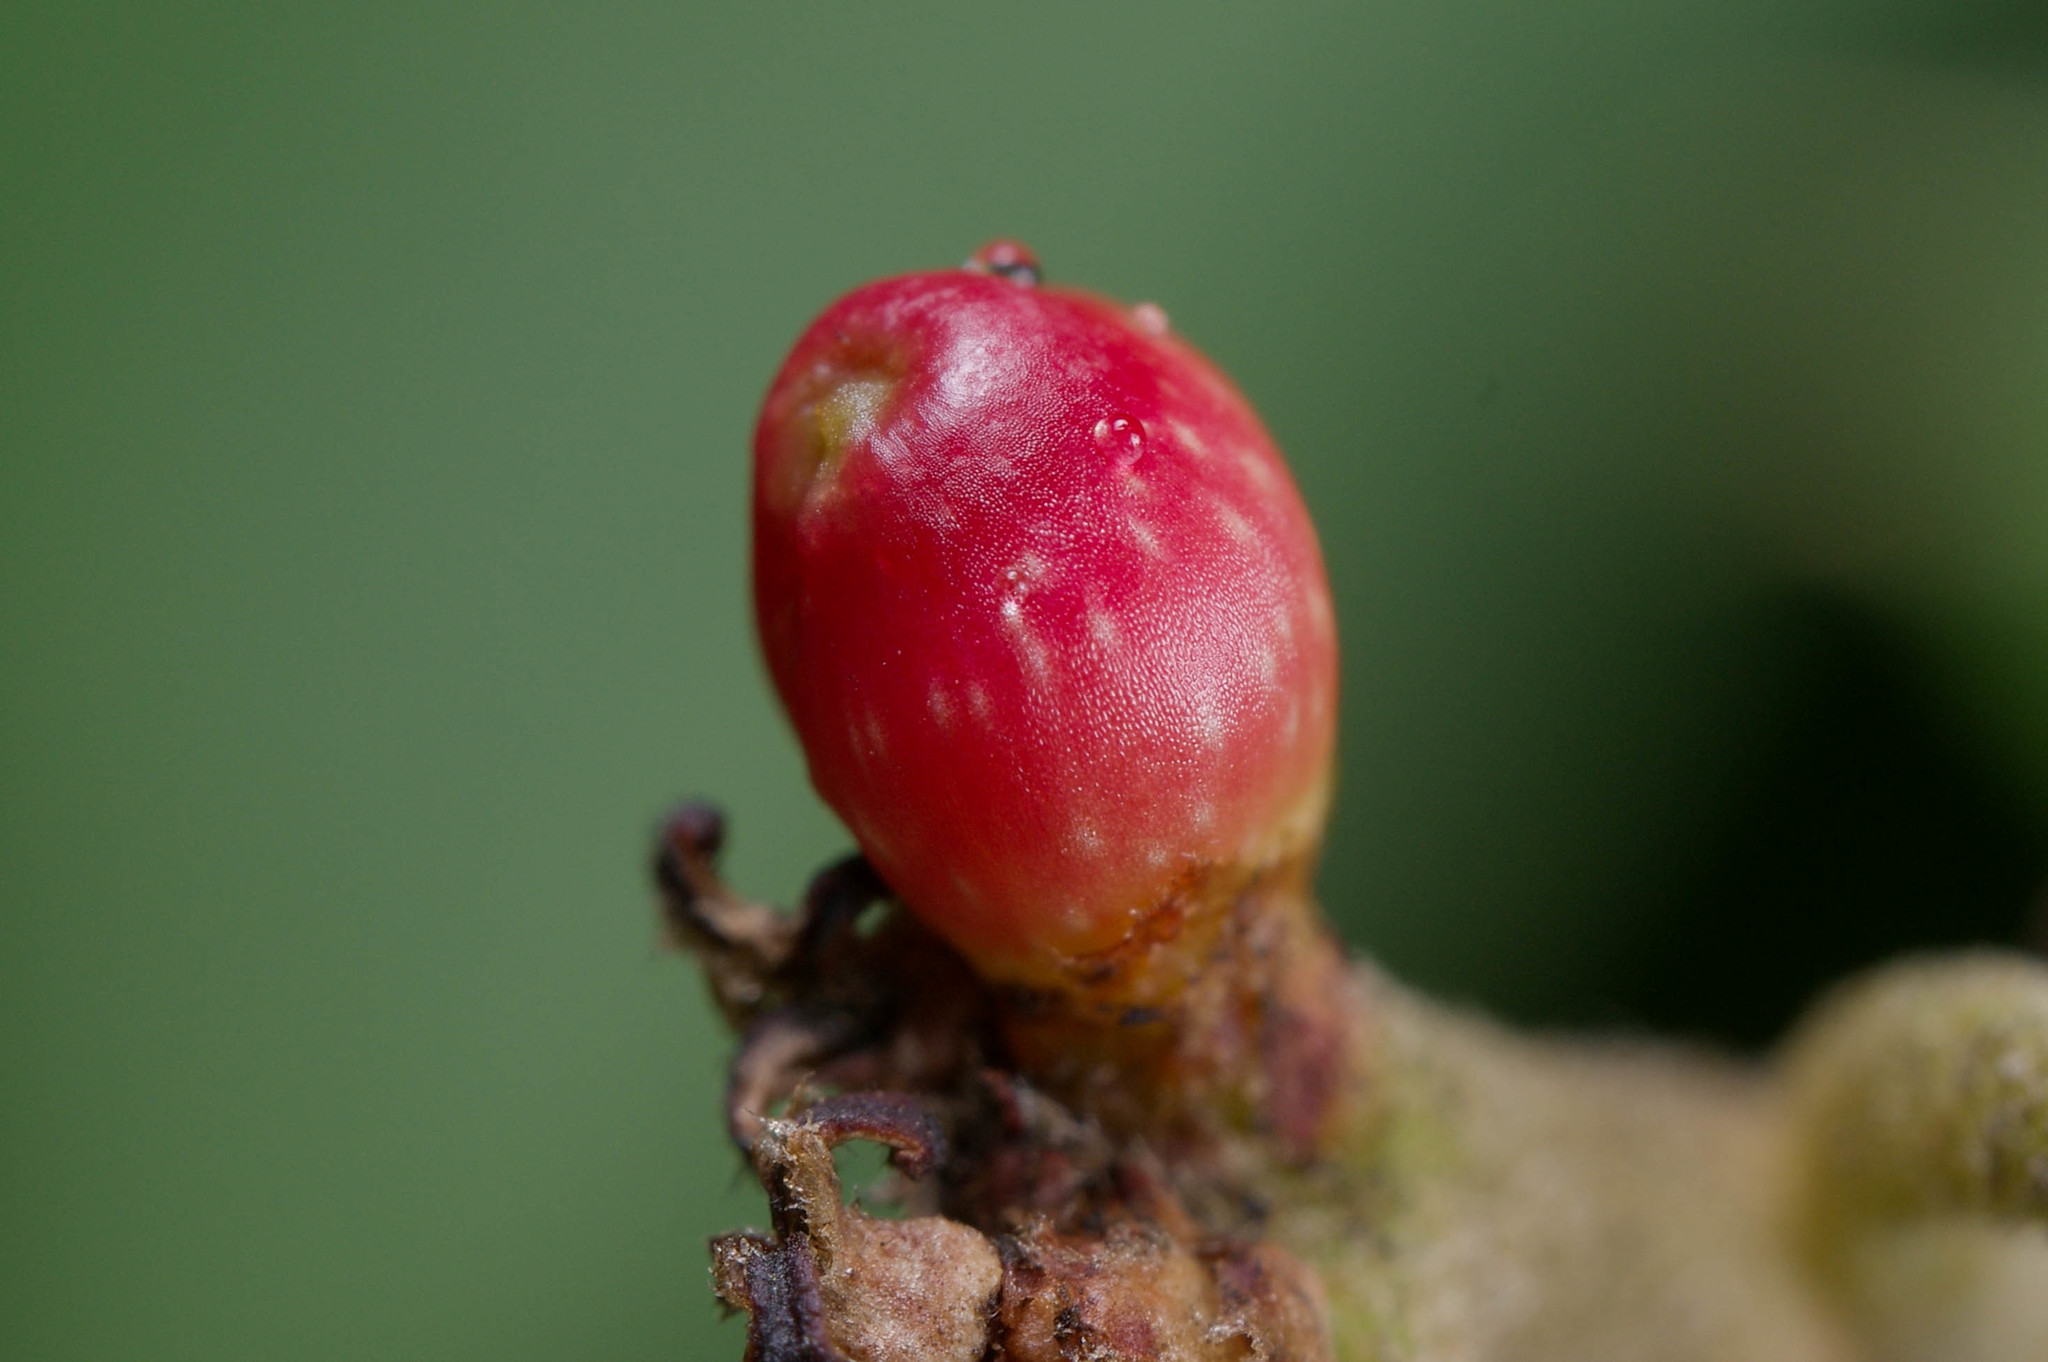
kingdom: Animalia
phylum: Arthropoda
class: Insecta
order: Hymenoptera
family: Cynipidae
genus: Callirhytis
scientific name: Callirhytis
